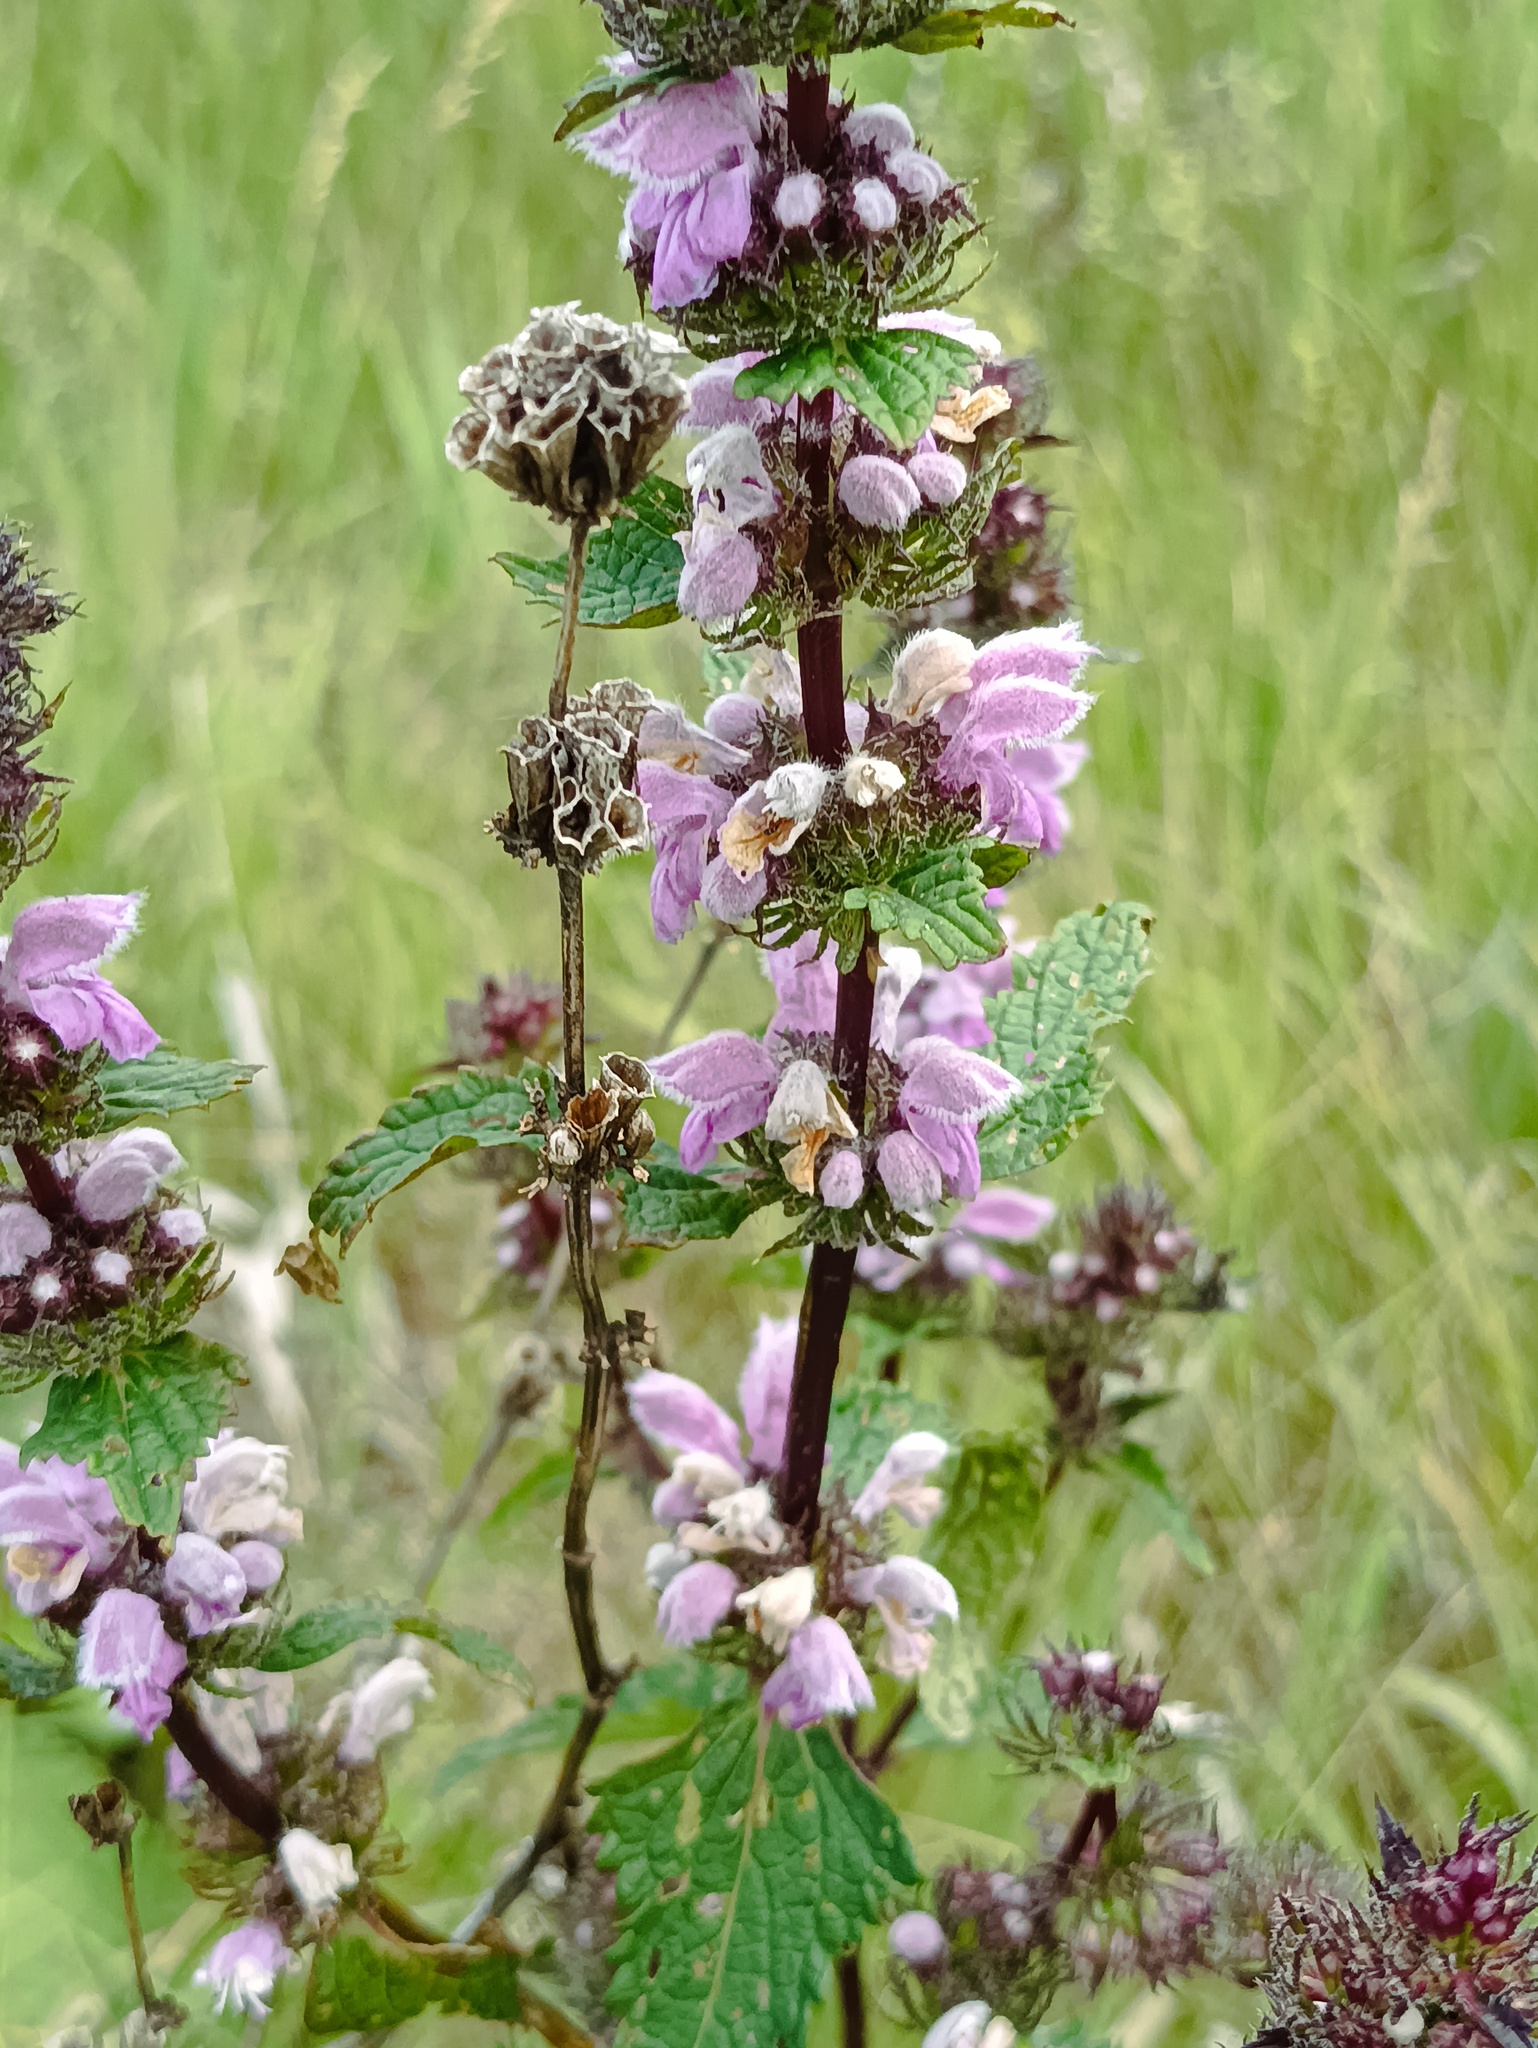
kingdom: Plantae
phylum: Tracheophyta
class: Magnoliopsida
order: Lamiales
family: Lamiaceae
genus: Phlomoides
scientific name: Phlomoides tuberosa
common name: Tuberous jerusalem sage
